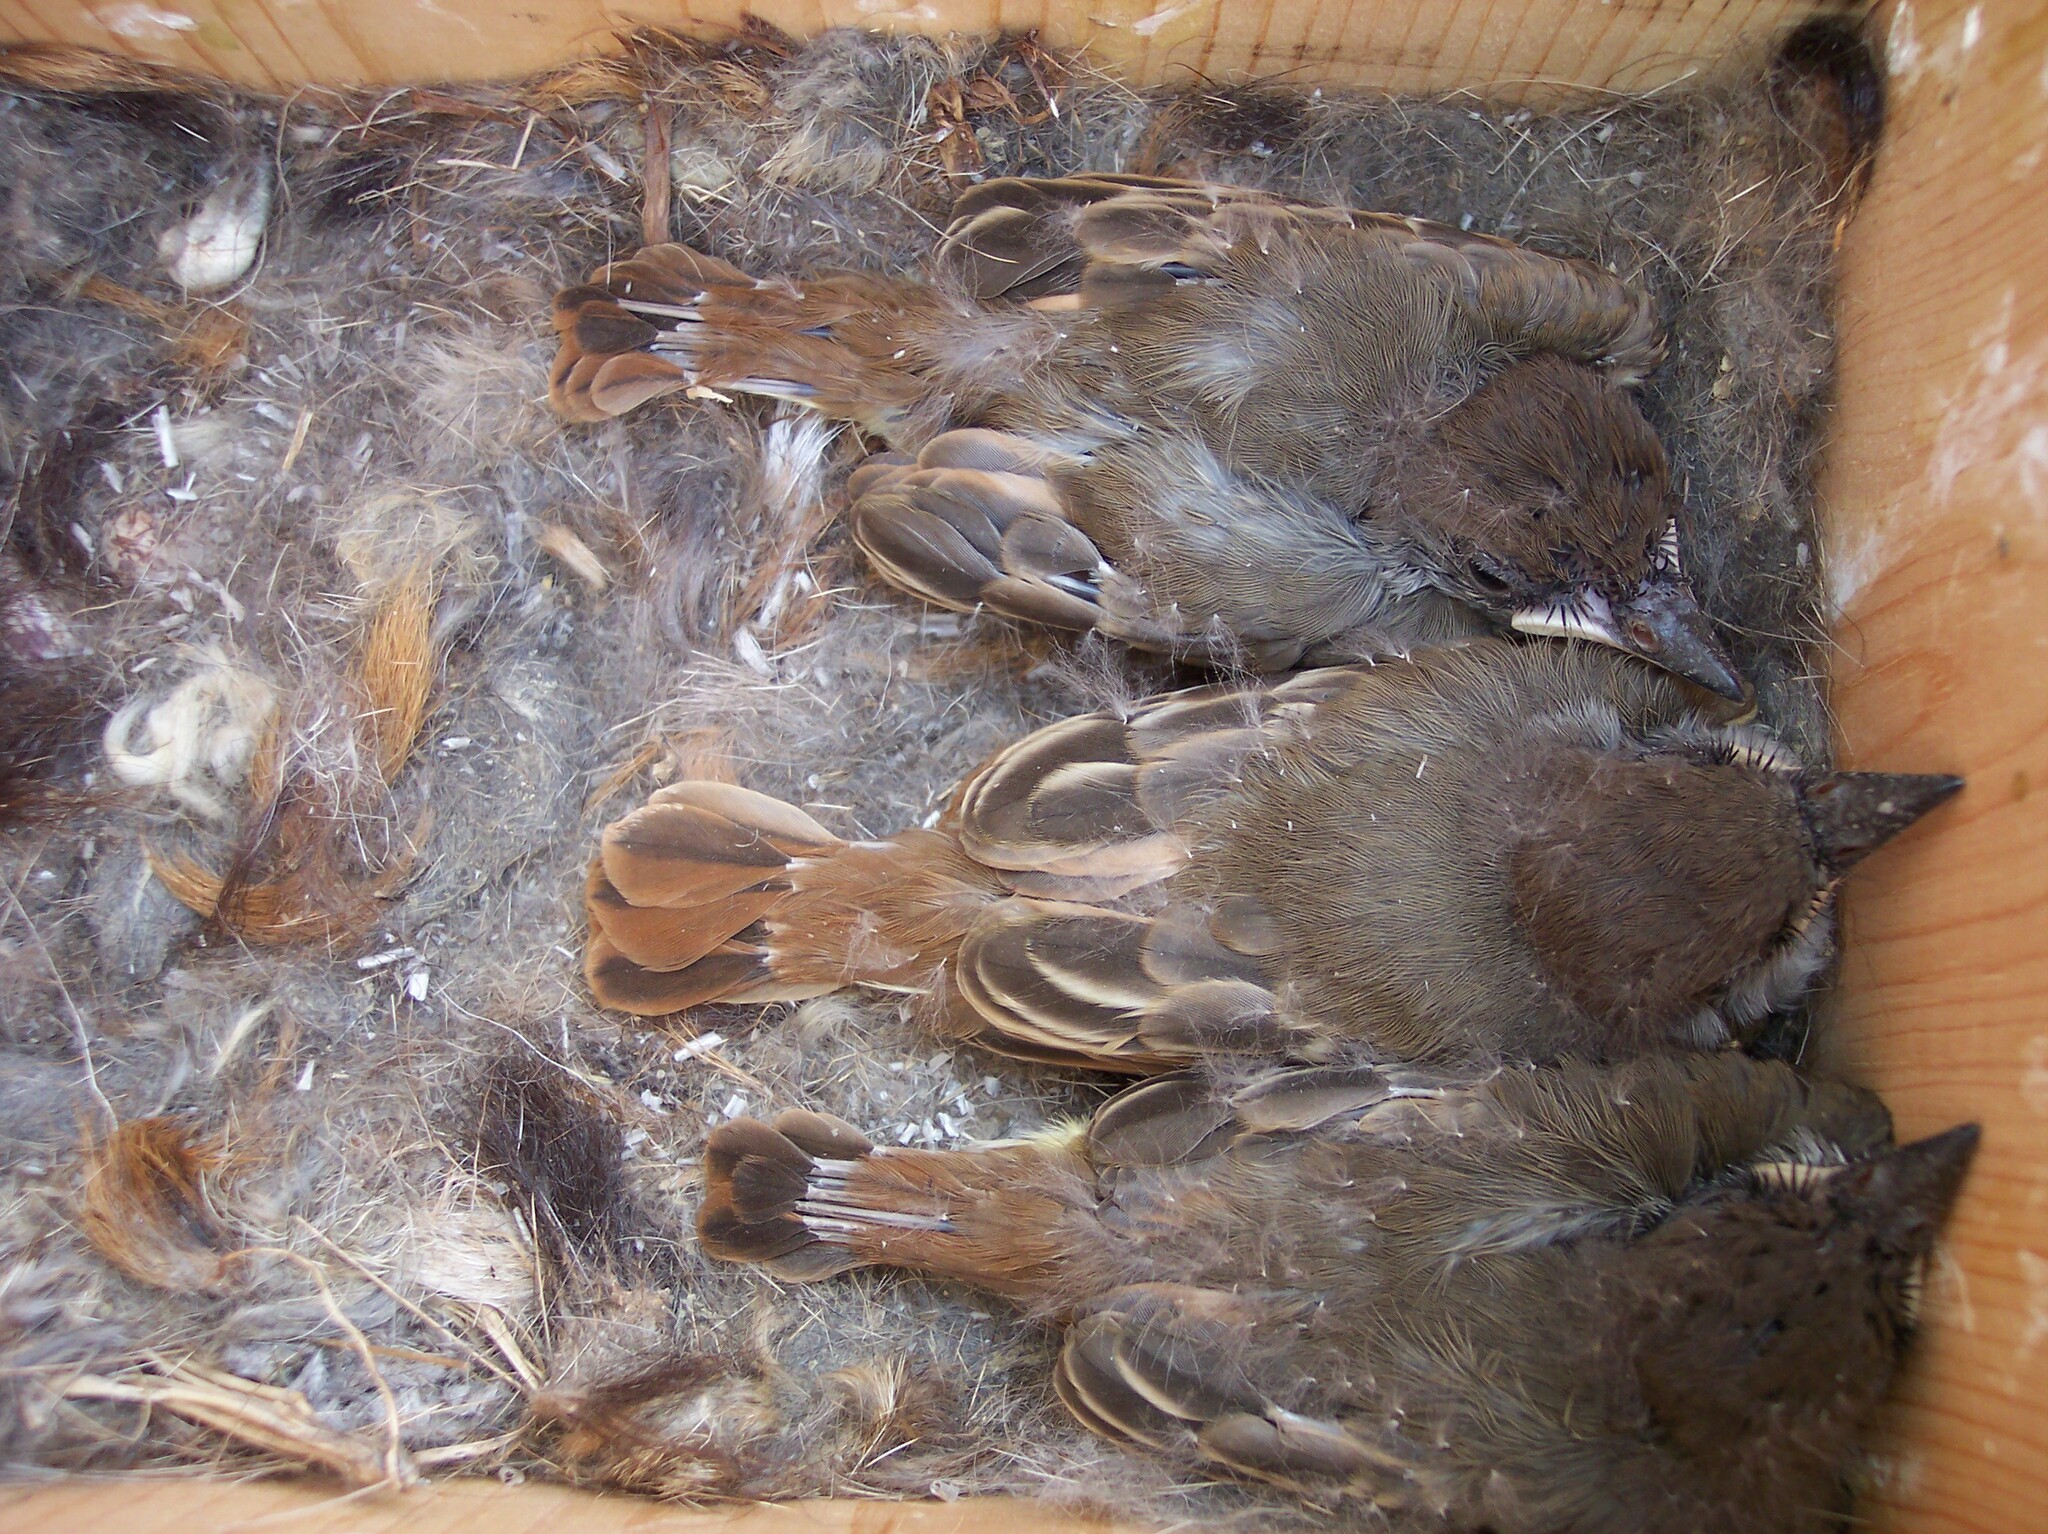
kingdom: Animalia
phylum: Chordata
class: Aves
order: Passeriformes
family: Tyrannidae
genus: Myiarchus
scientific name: Myiarchus cinerascens
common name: Ash-throated flycatcher
